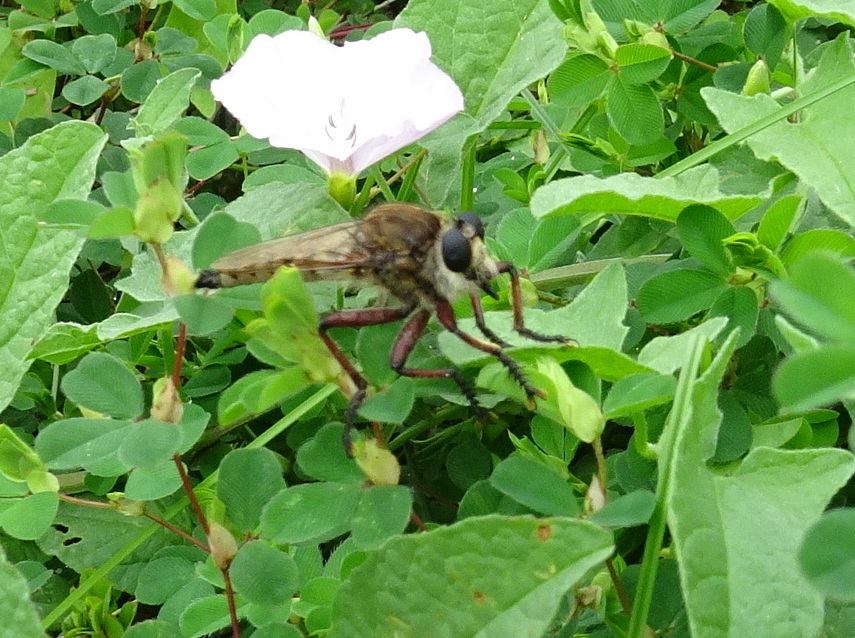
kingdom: Animalia
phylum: Arthropoda
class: Insecta
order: Diptera
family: Asilidae
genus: Promachus
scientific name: Promachus hinei
